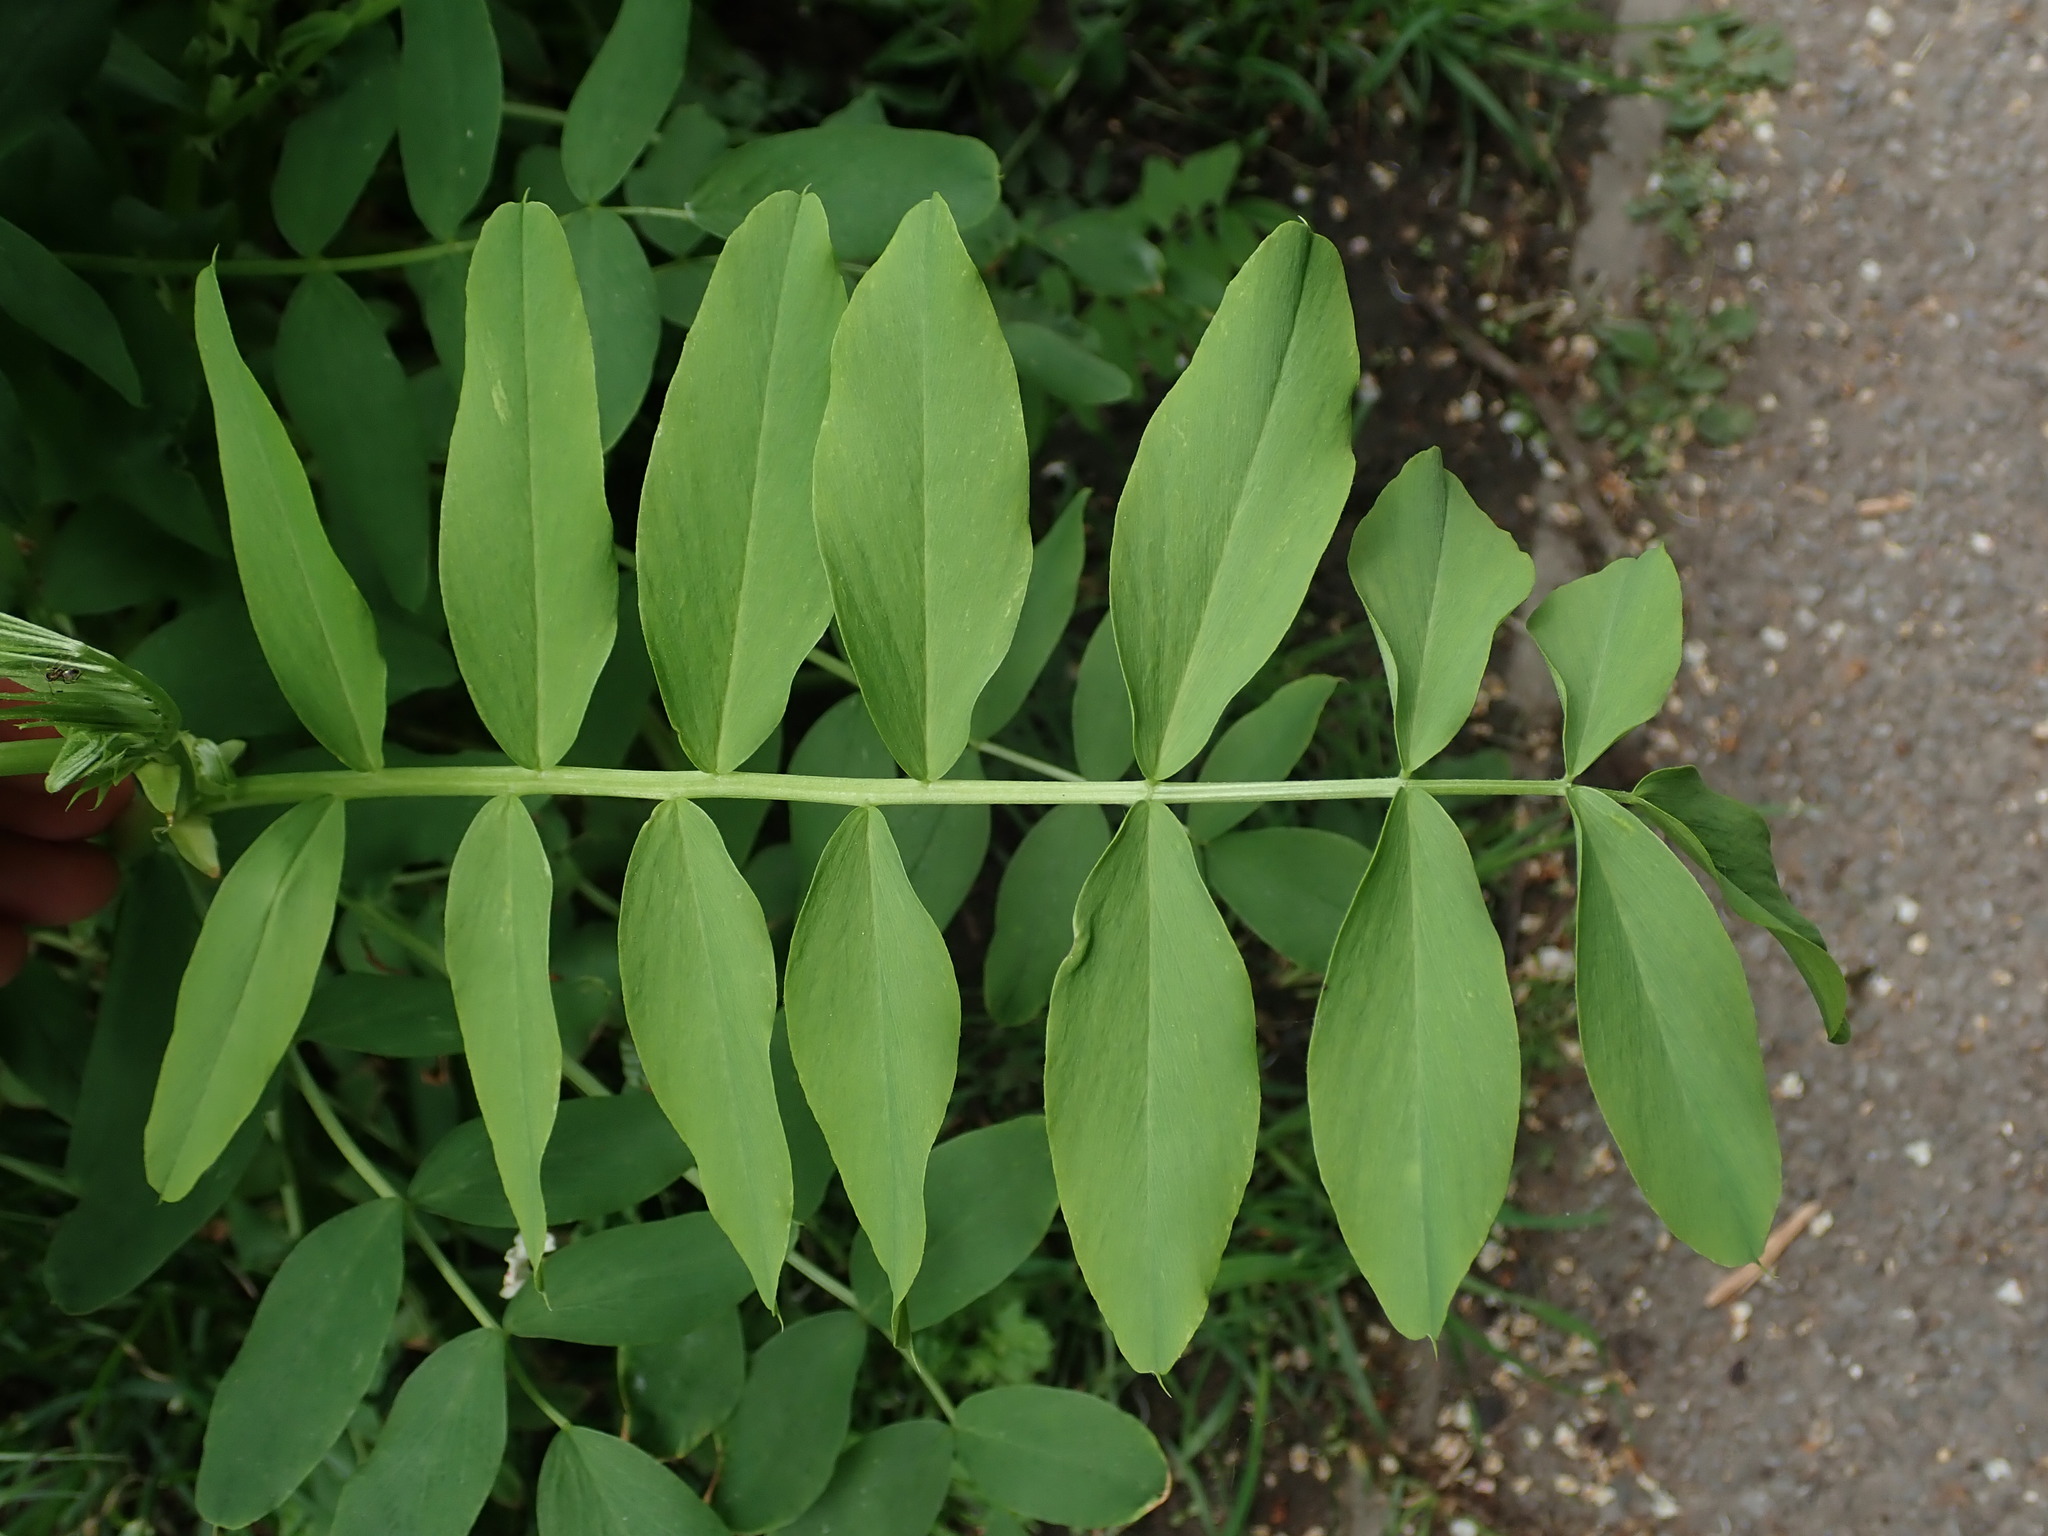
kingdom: Plantae
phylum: Tracheophyta
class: Magnoliopsida
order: Fabales
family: Fabaceae
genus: Galega
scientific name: Galega officinalis
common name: Goat's-rue
